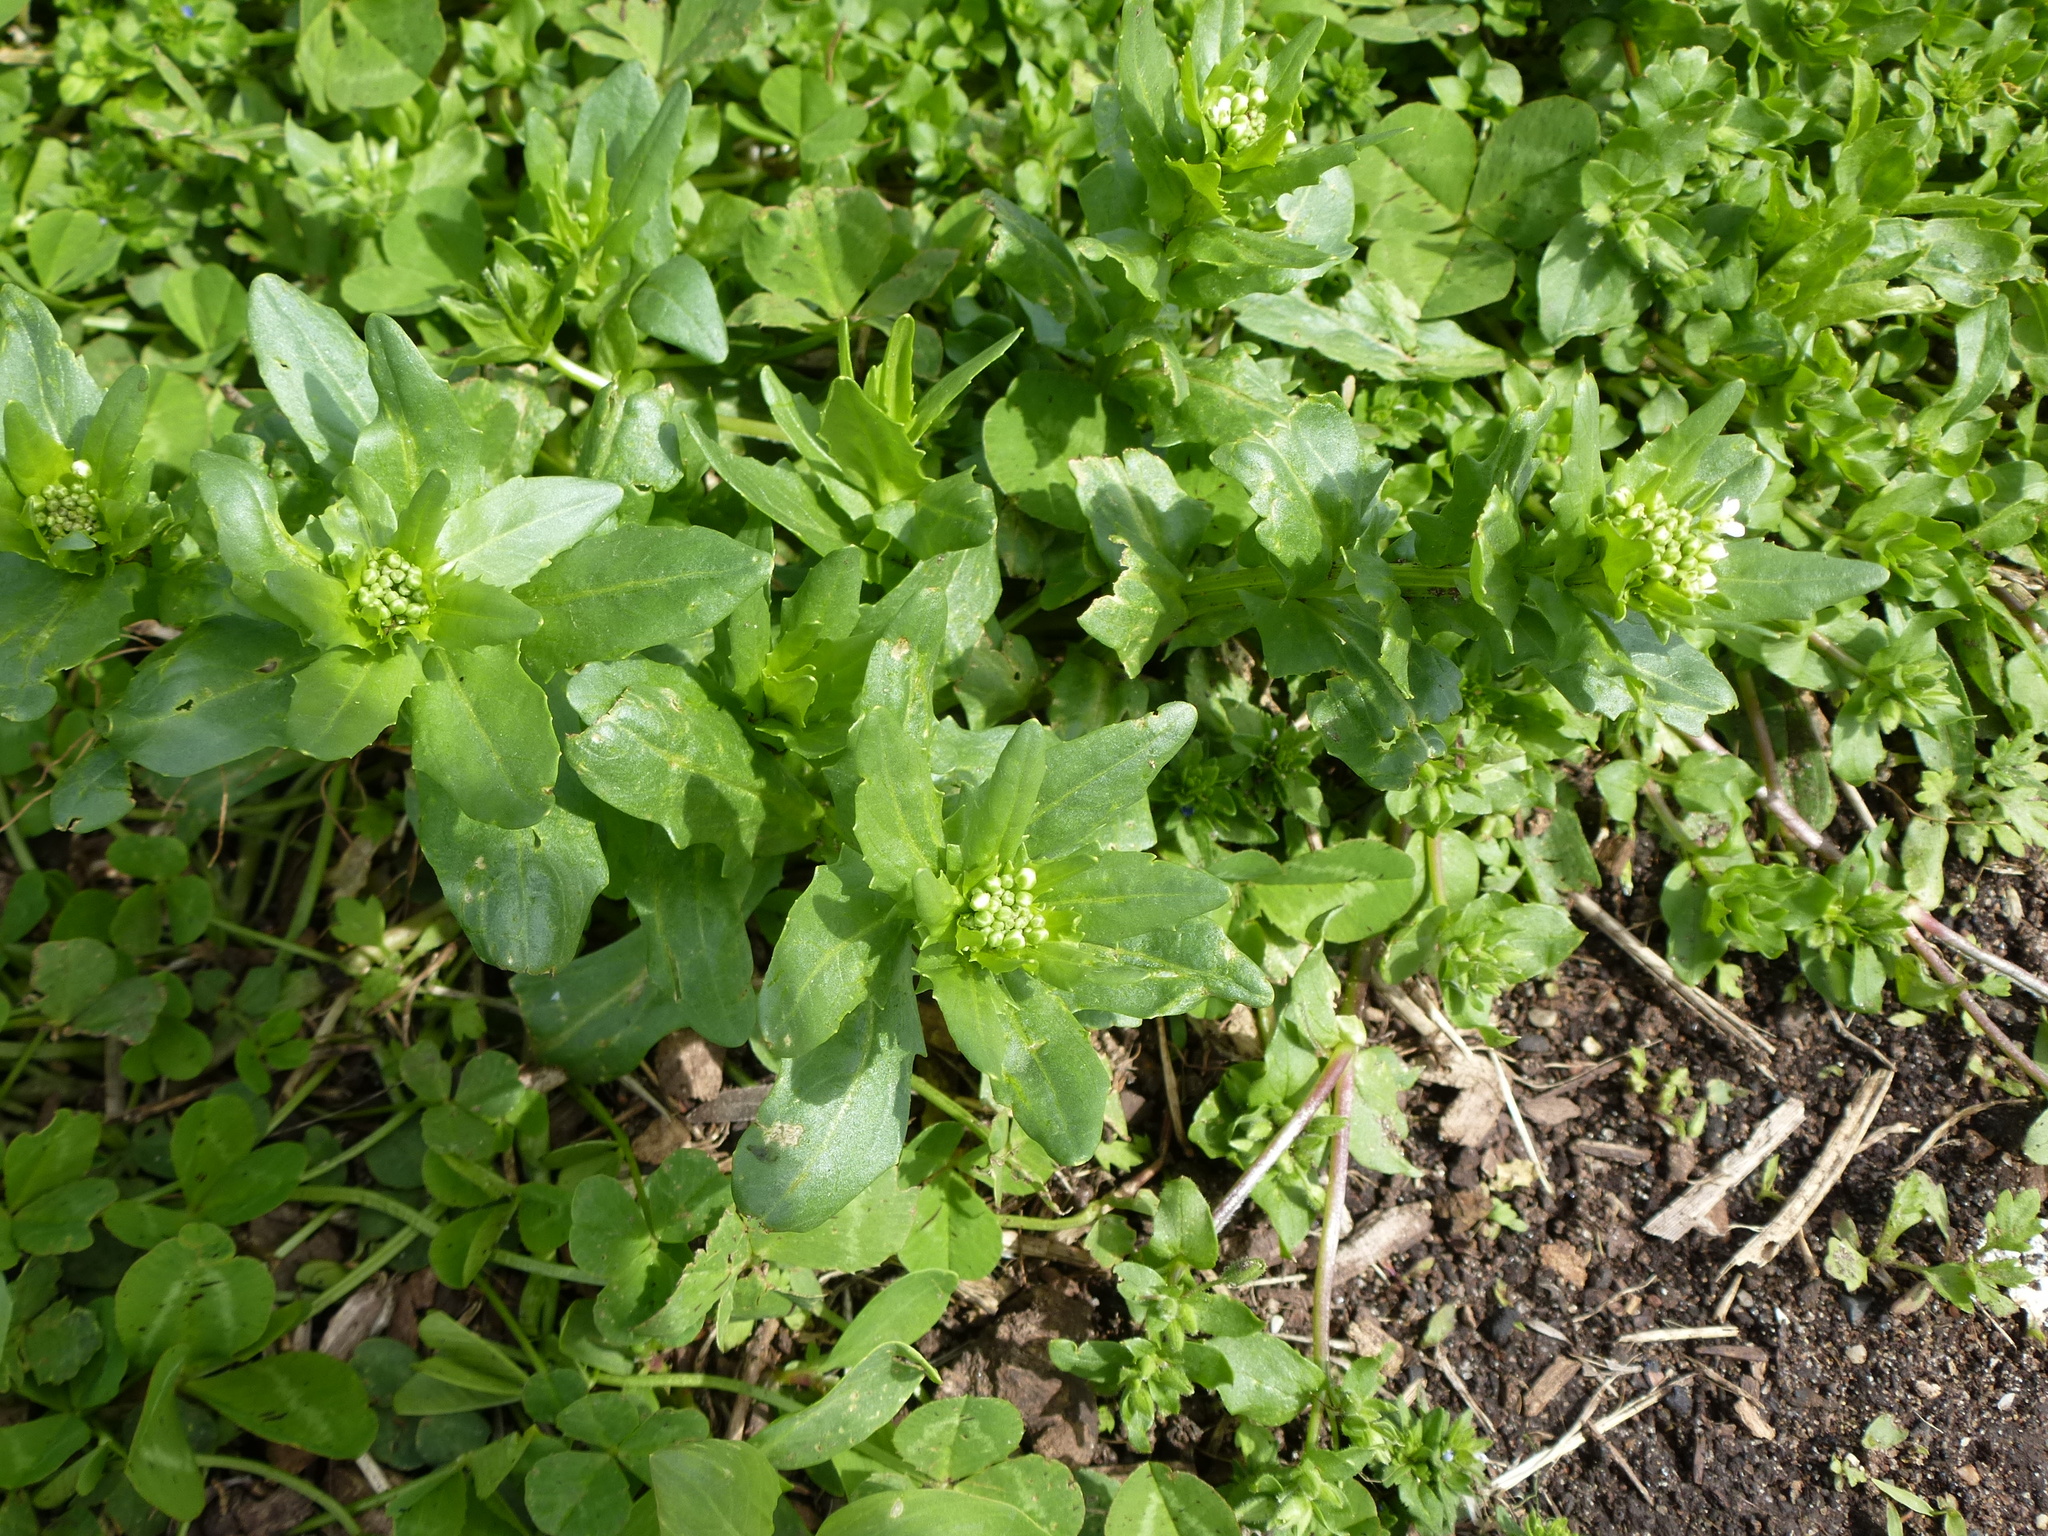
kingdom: Plantae
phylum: Tracheophyta
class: Magnoliopsida
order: Brassicales
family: Brassicaceae
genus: Thlaspi
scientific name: Thlaspi arvense
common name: Field pennycress
